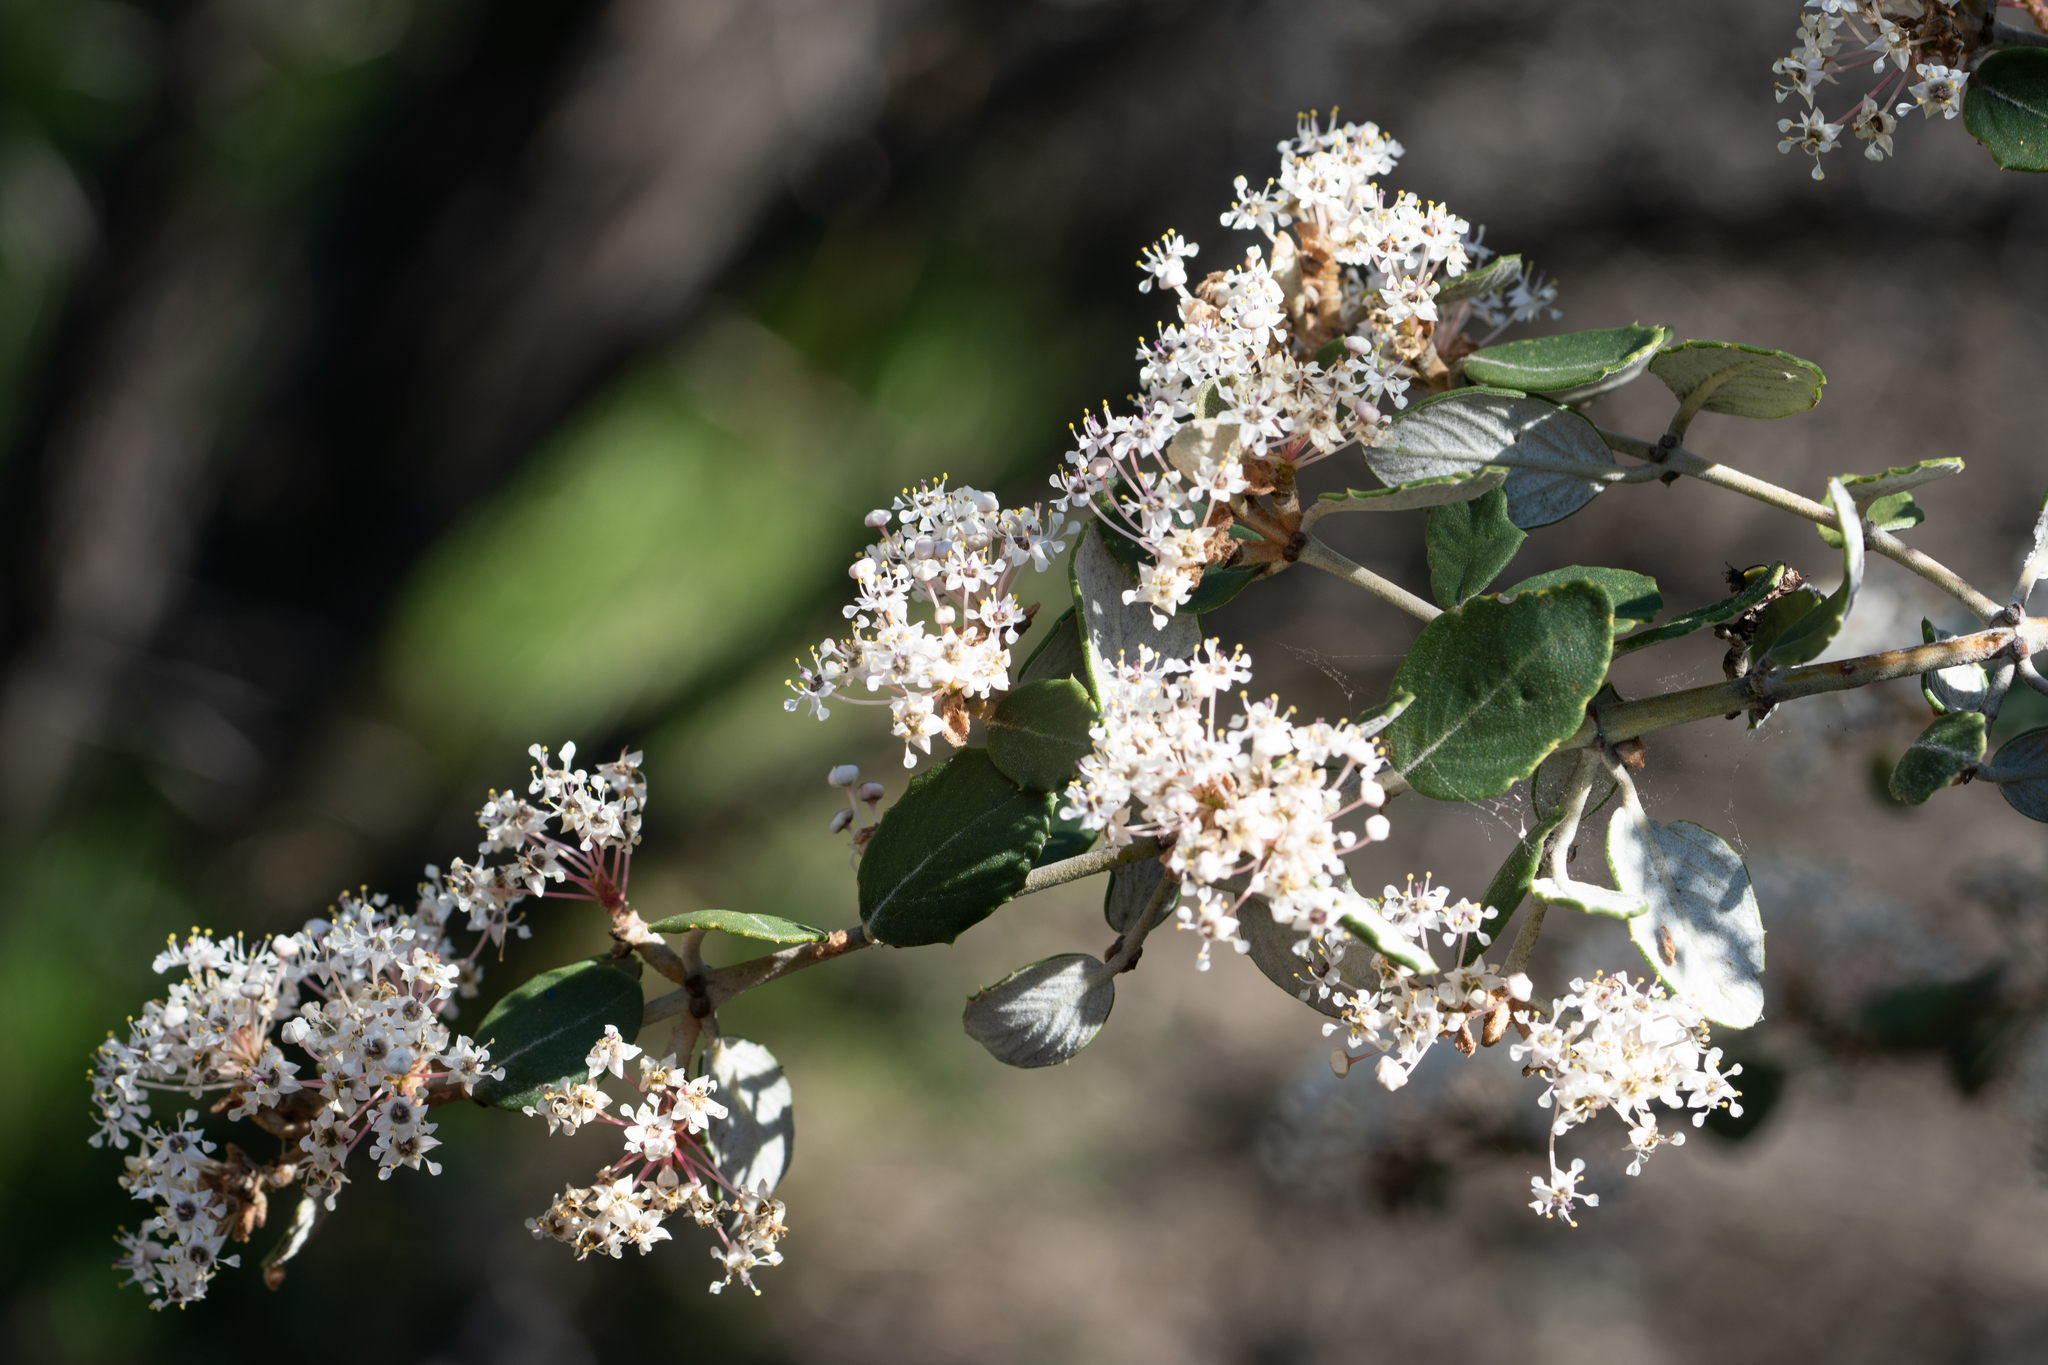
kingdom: Plantae
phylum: Tracheophyta
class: Magnoliopsida
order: Rosales
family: Rhamnaceae
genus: Ceanothus
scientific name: Ceanothus crassifolius
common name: Hoaryleaf ceanothus
